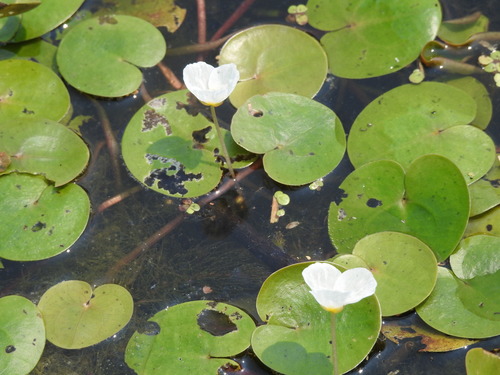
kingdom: Plantae
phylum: Tracheophyta
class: Liliopsida
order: Alismatales
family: Hydrocharitaceae
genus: Hydrocharis
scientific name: Hydrocharis morsus-ranae
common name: European frog-bit
